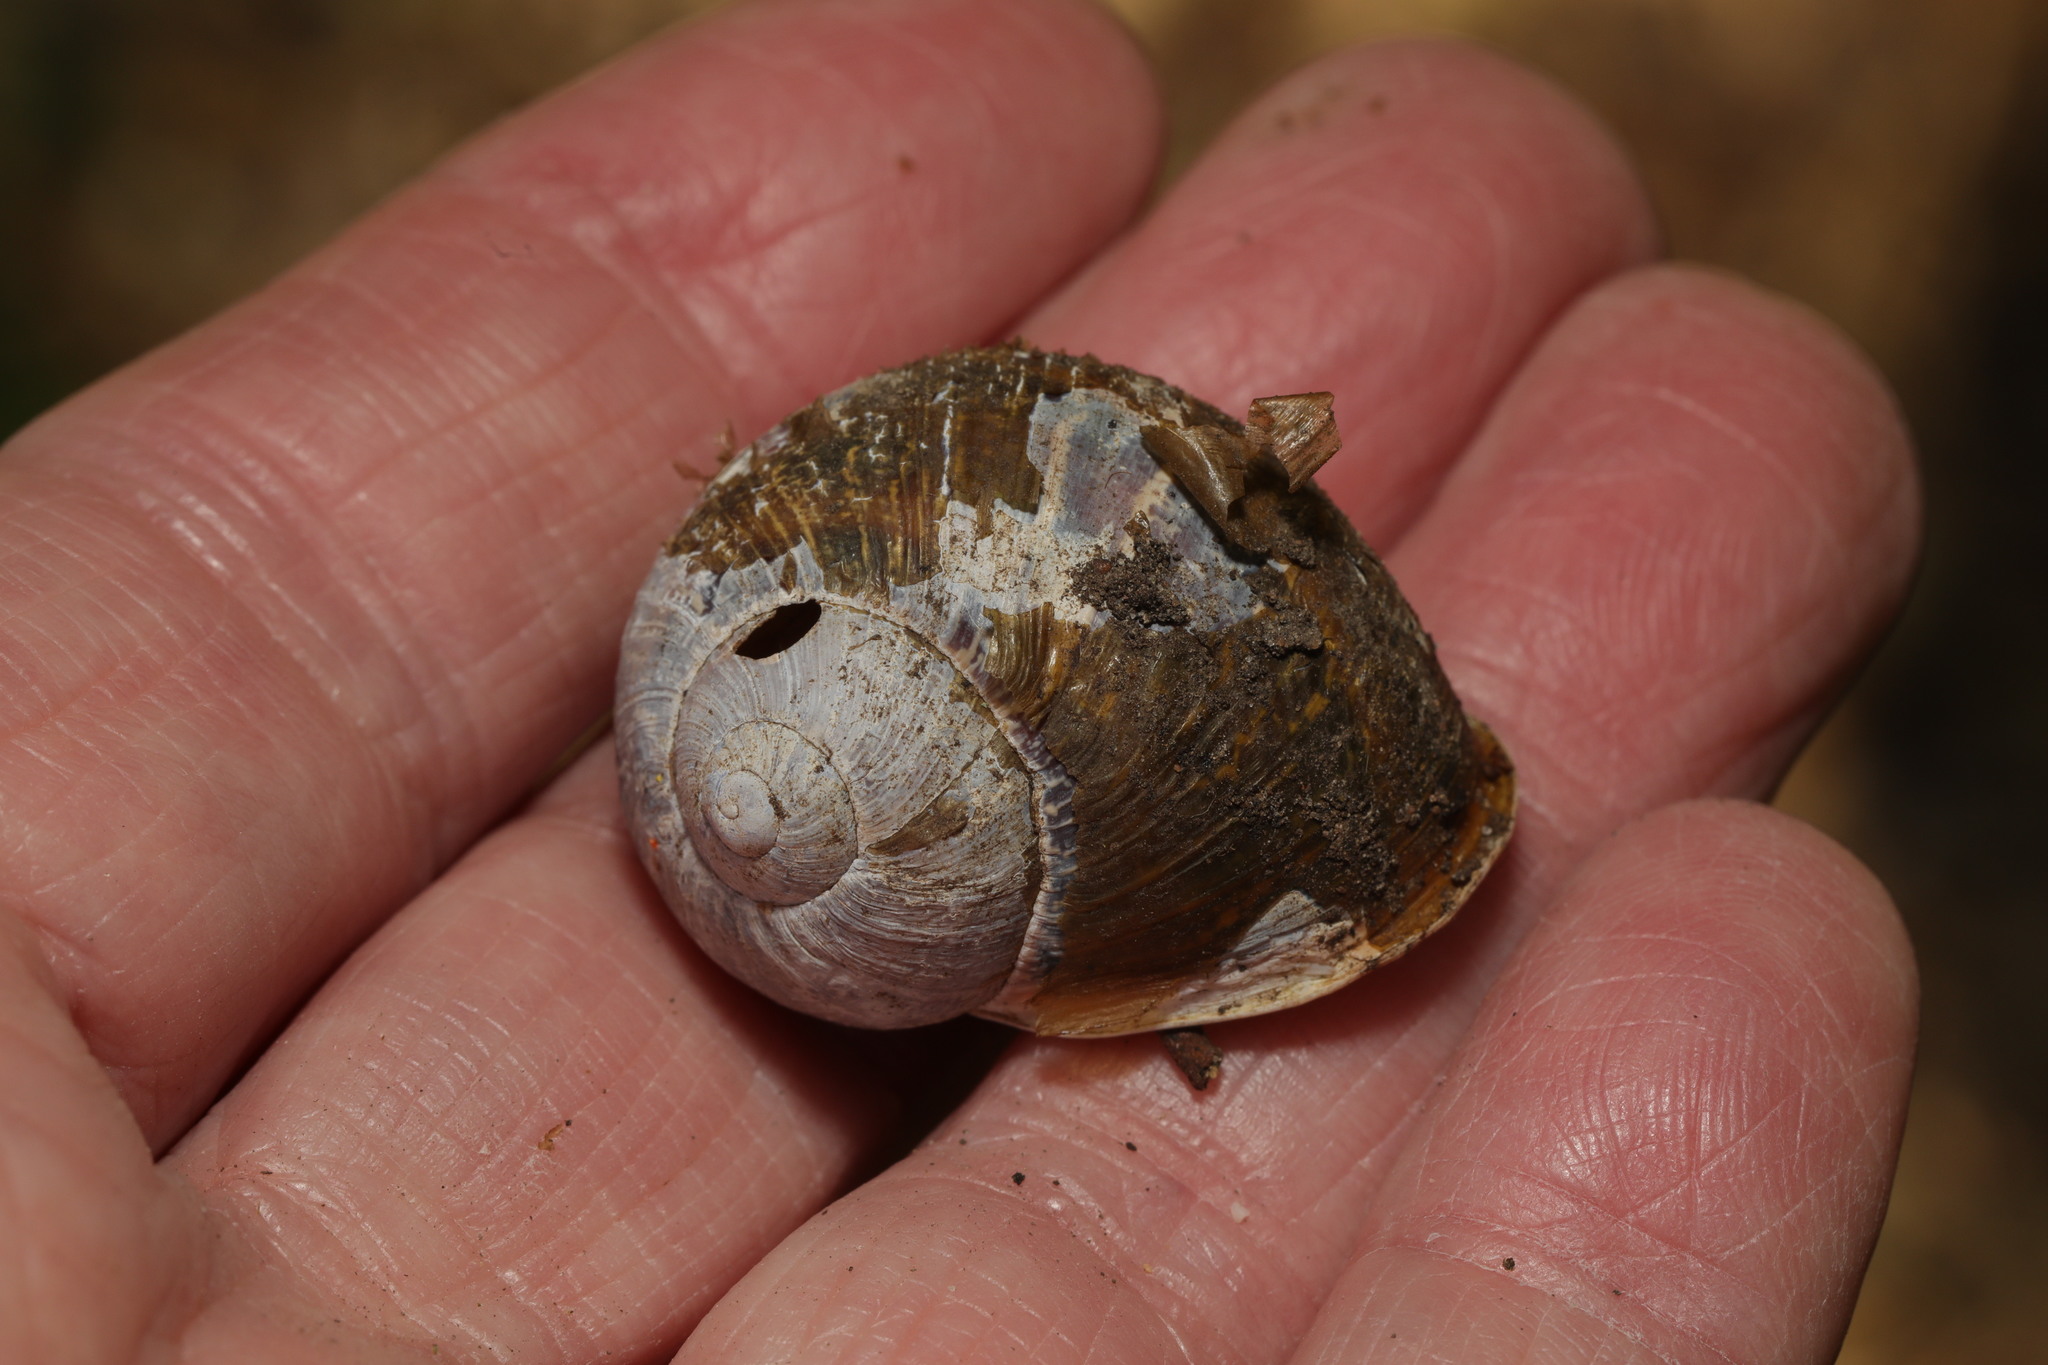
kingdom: Animalia
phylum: Mollusca
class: Gastropoda
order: Stylommatophora
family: Helicidae
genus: Cornu
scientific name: Cornu aspersum
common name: Brown garden snail
